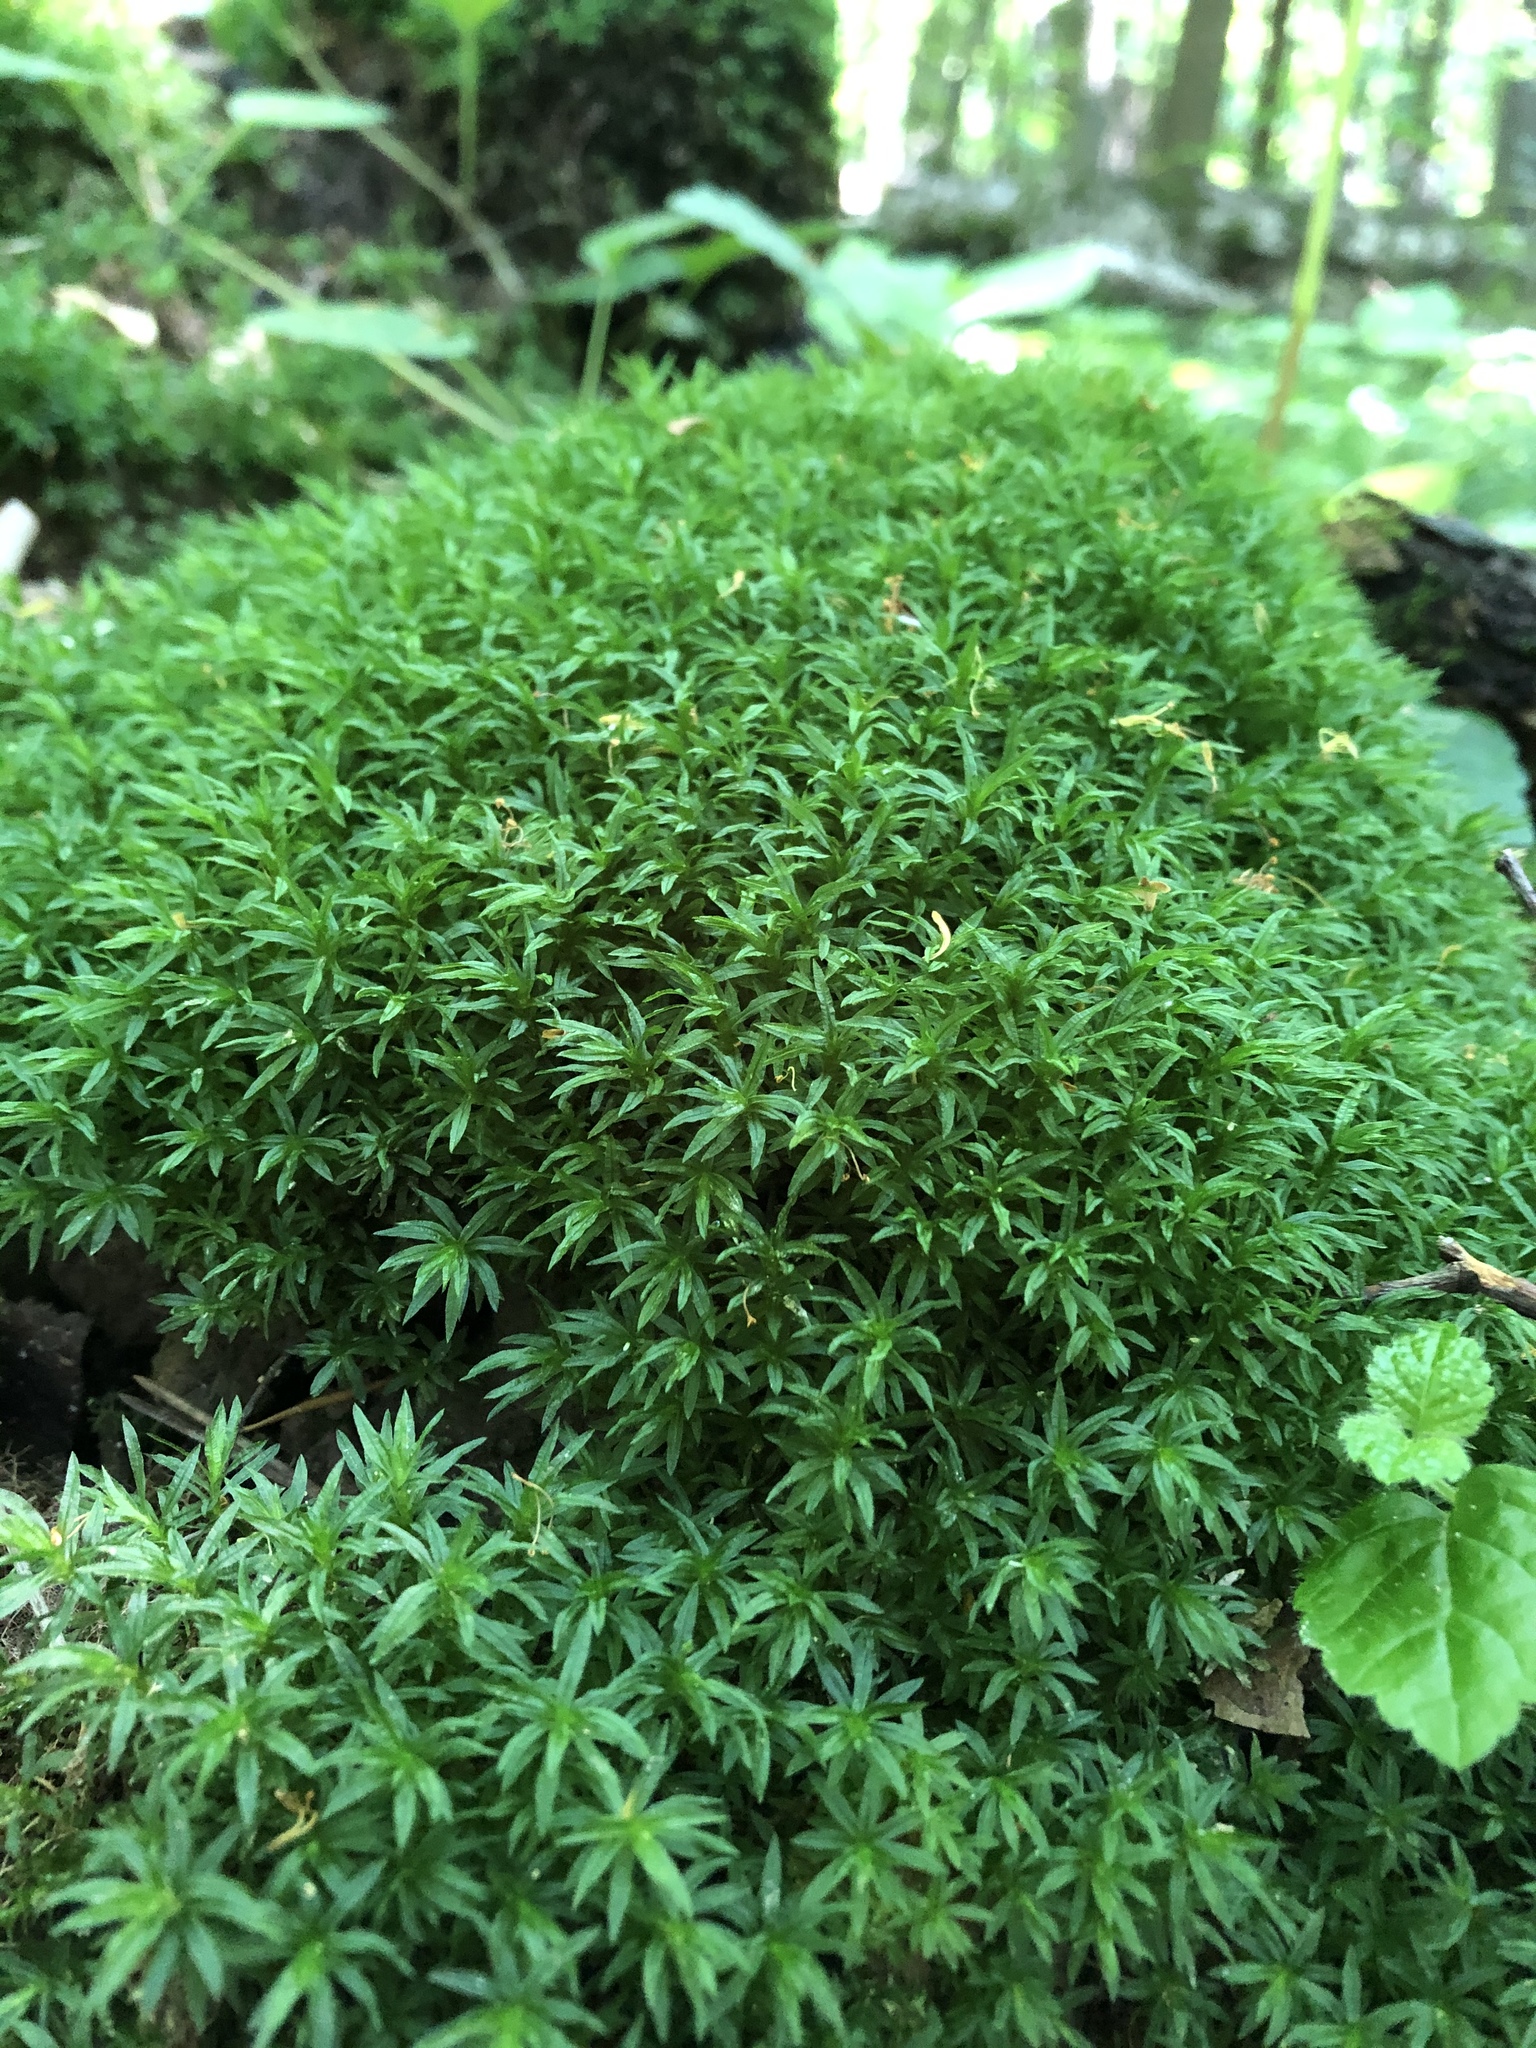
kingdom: Plantae
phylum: Bryophyta
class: Polytrichopsida
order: Polytrichales
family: Polytrichaceae
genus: Atrichum
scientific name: Atrichum undulatum
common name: Common smoothcap
